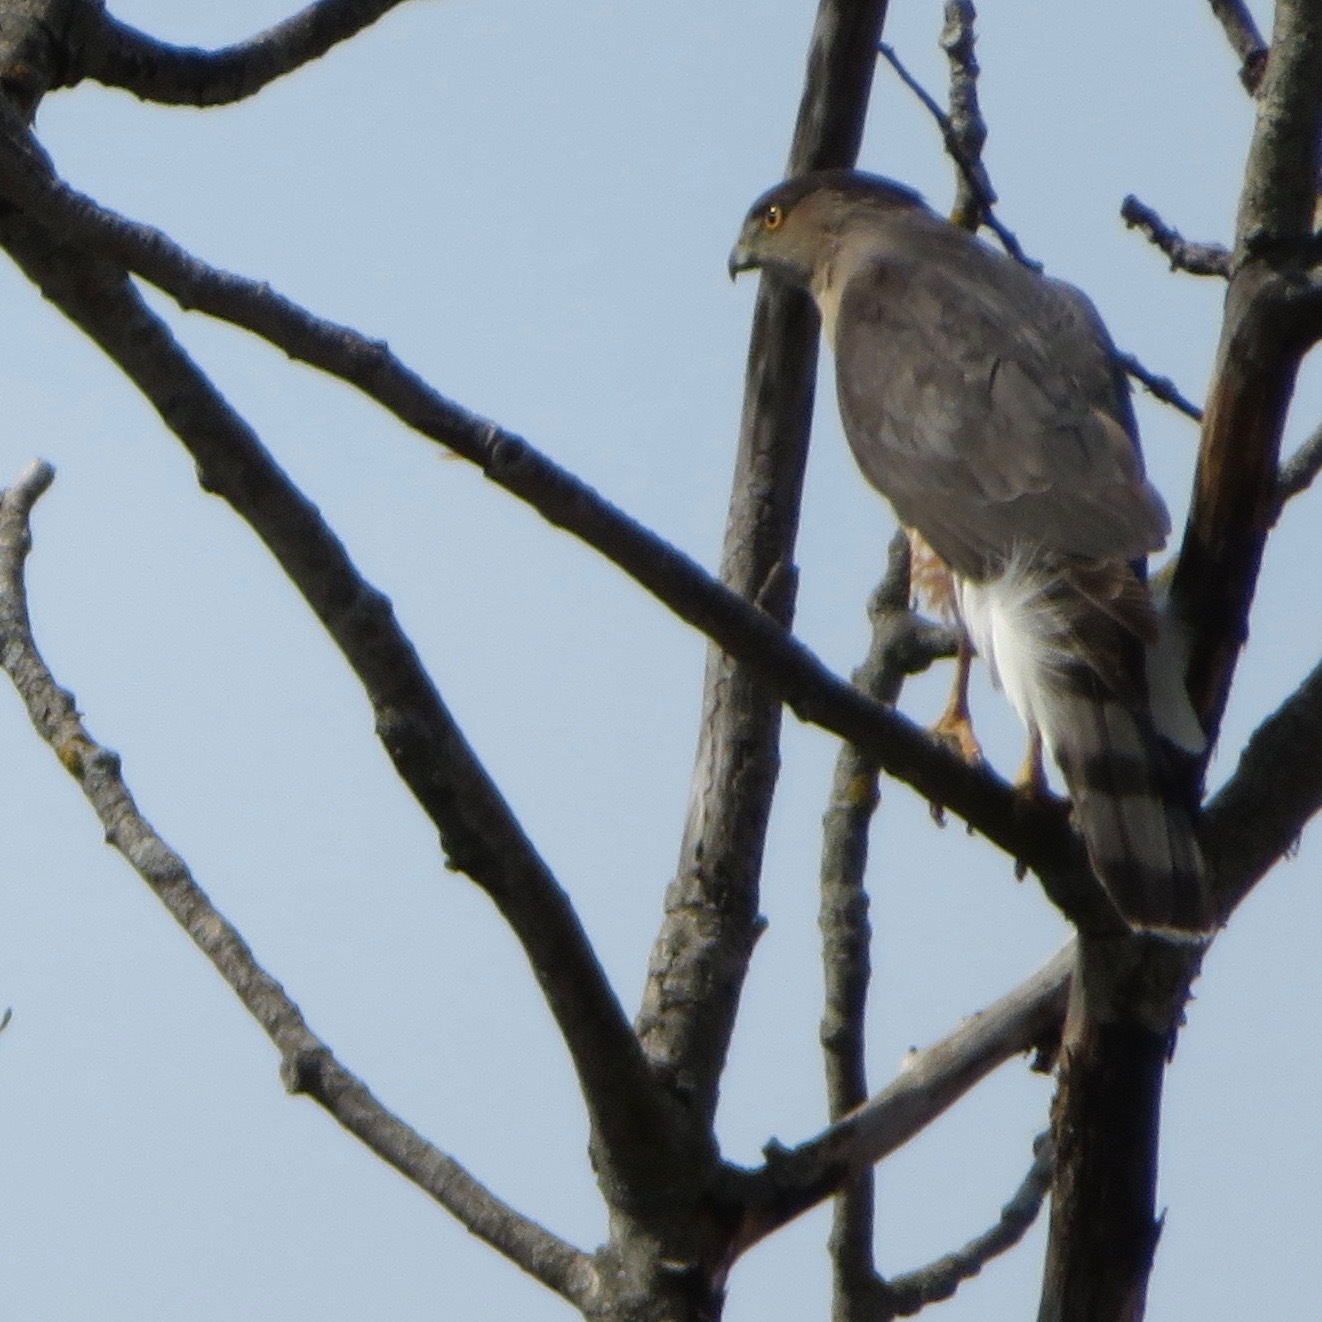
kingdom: Animalia
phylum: Chordata
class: Aves
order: Accipitriformes
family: Accipitridae
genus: Accipiter
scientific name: Accipiter cooperii
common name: Cooper's hawk
